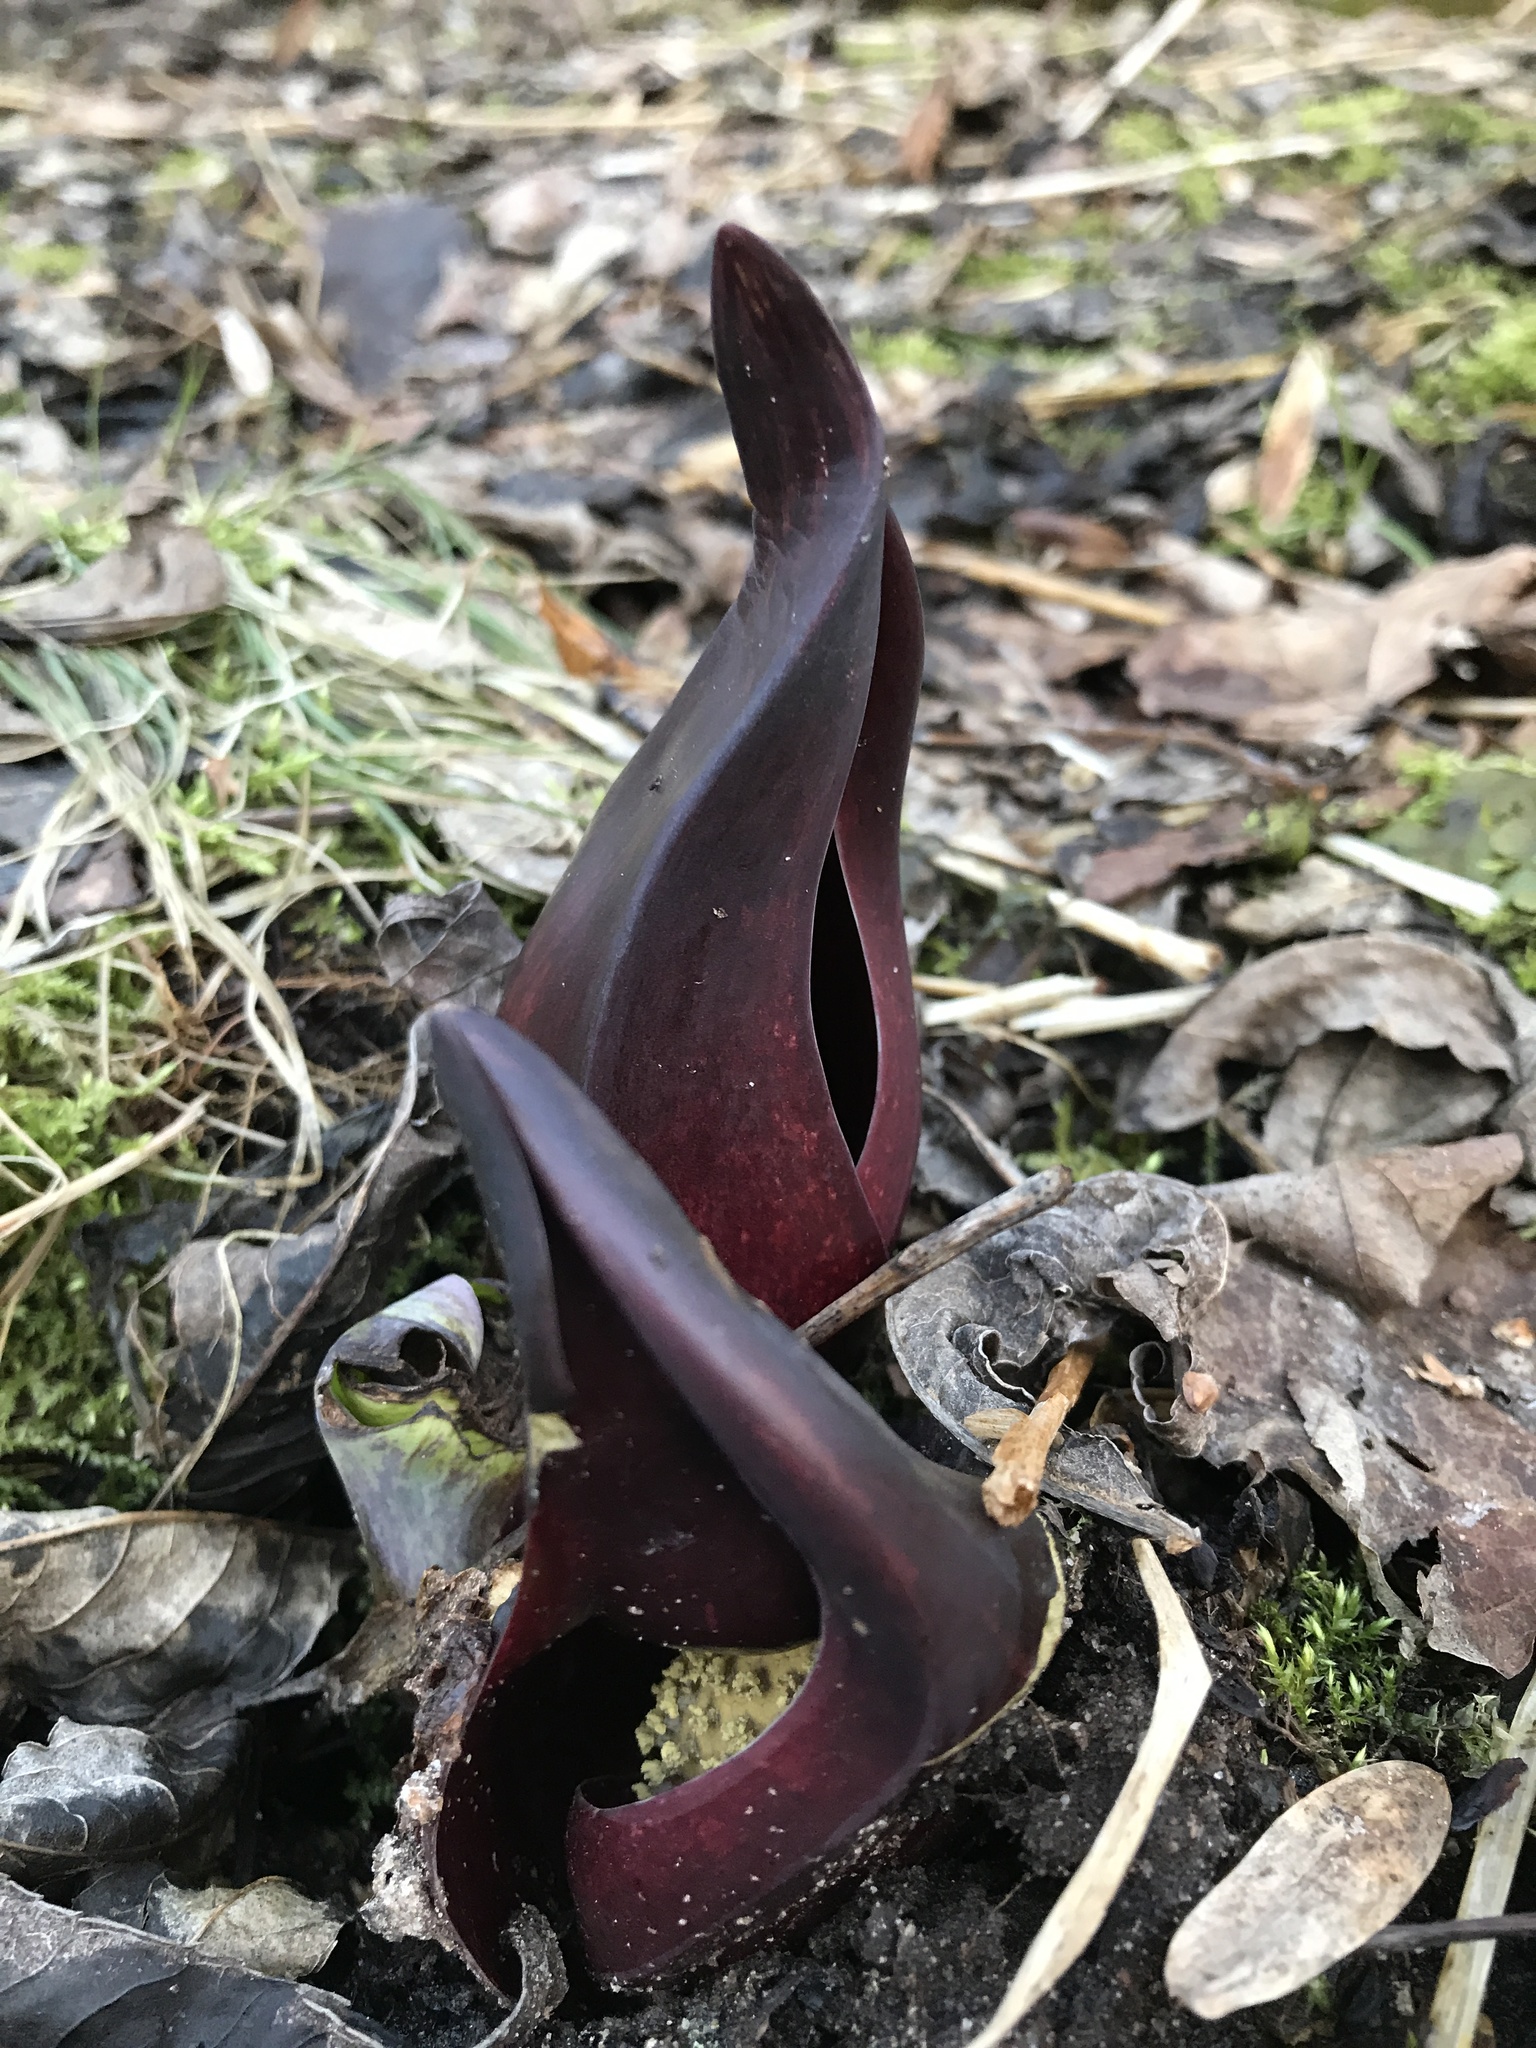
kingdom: Plantae
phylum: Tracheophyta
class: Liliopsida
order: Alismatales
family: Araceae
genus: Symplocarpus
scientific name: Symplocarpus foetidus
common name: Eastern skunk cabbage
